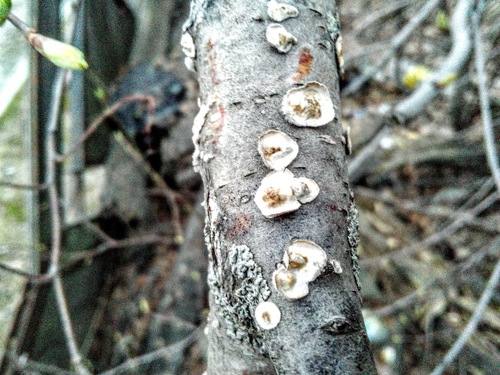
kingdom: Fungi
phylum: Basidiomycota
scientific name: Basidiomycota
